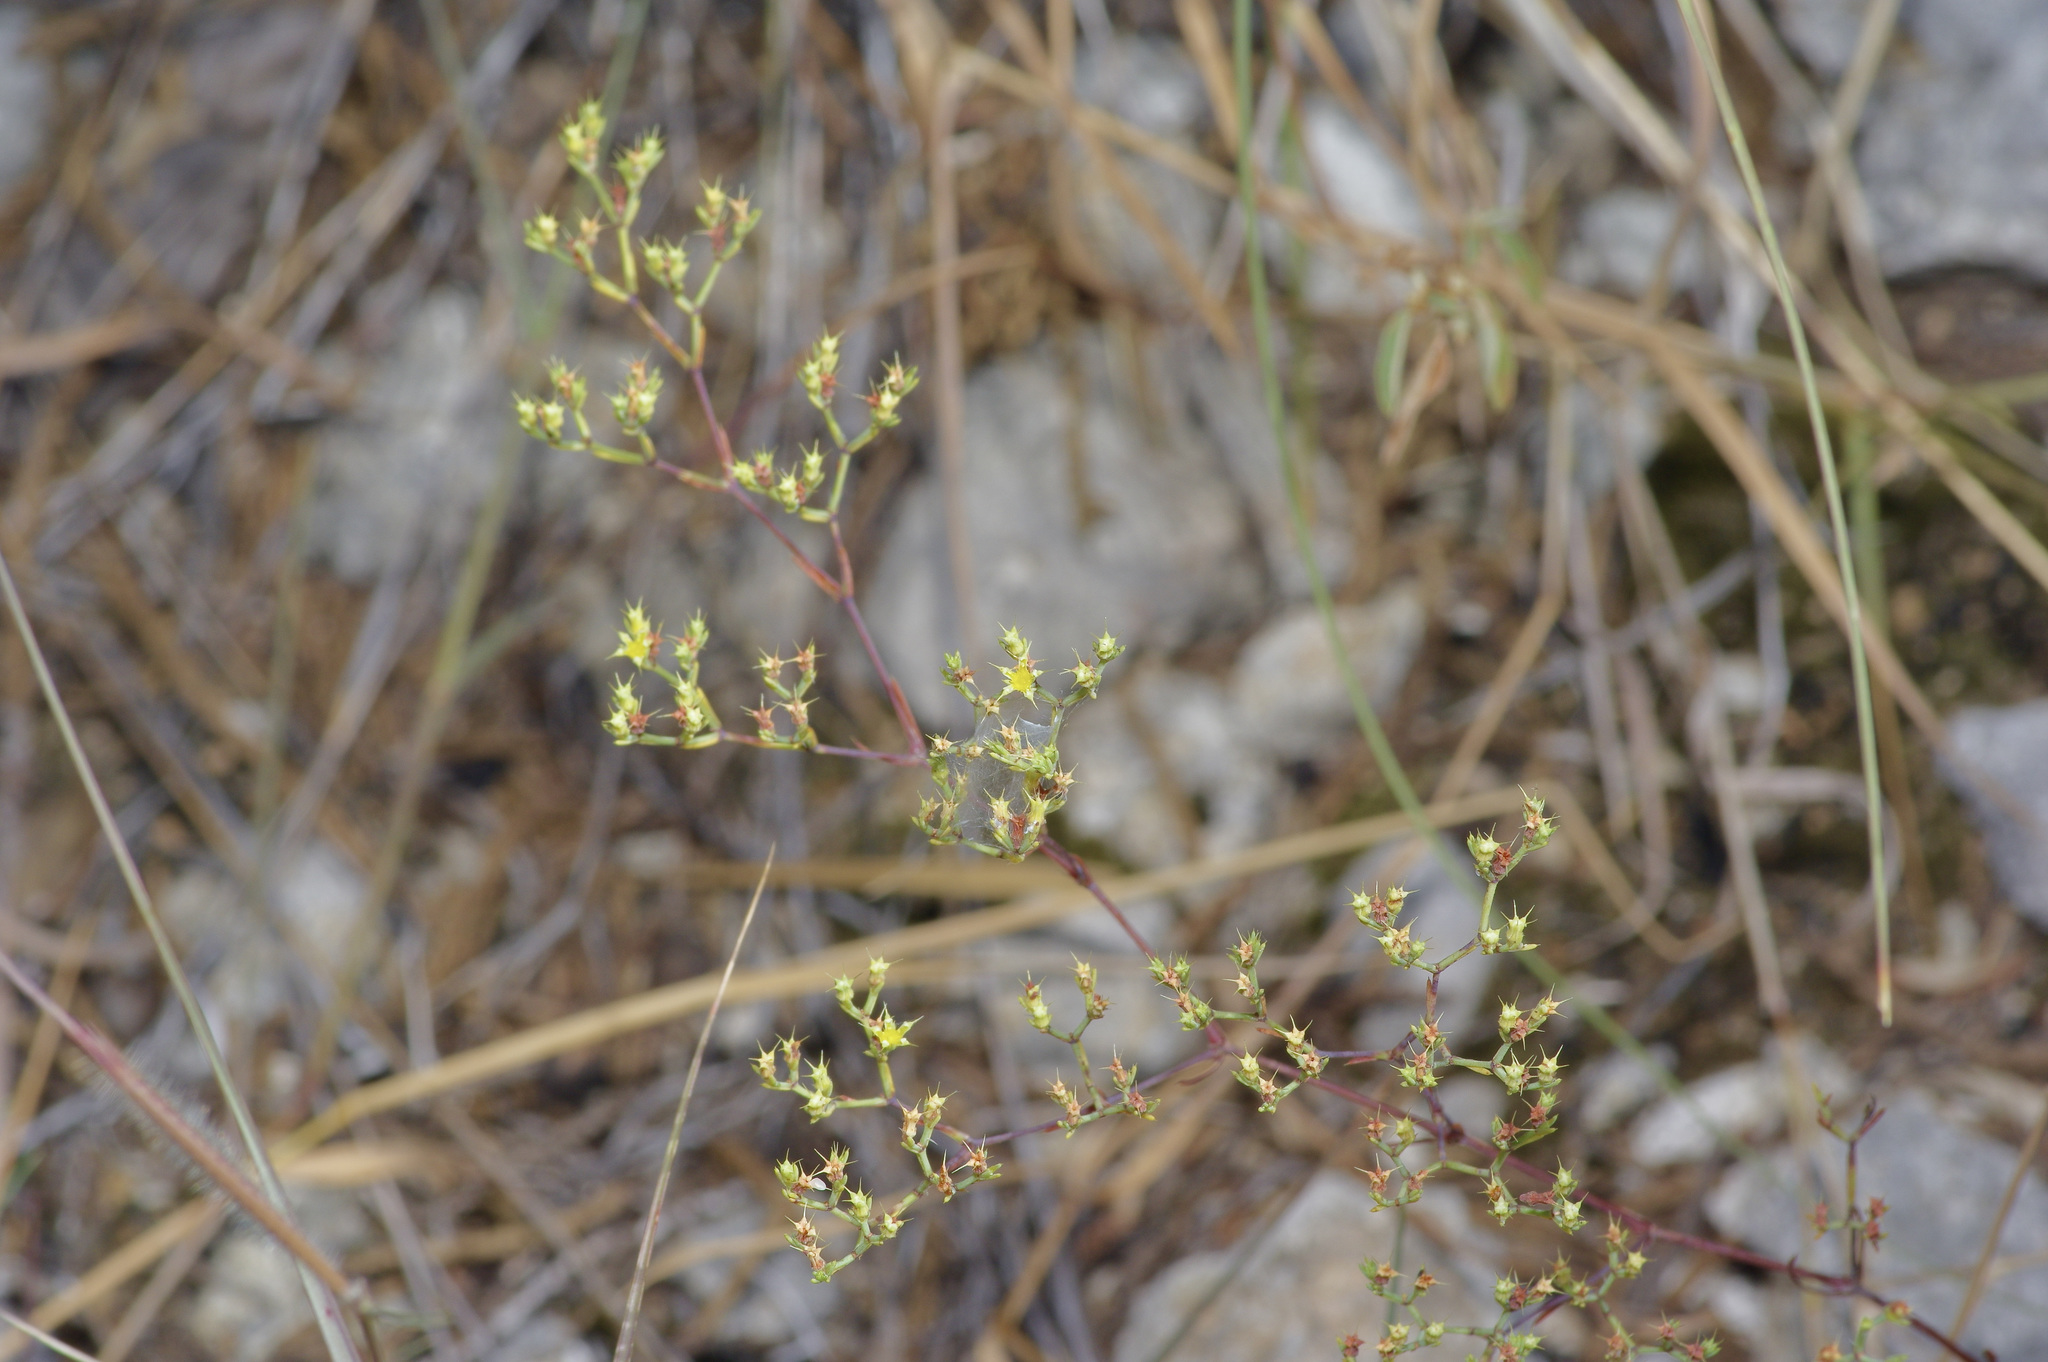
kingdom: Plantae
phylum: Tracheophyta
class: Magnoliopsida
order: Caryophyllales
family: Caryophyllaceae
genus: Paronychia
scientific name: Paronychia virginica
